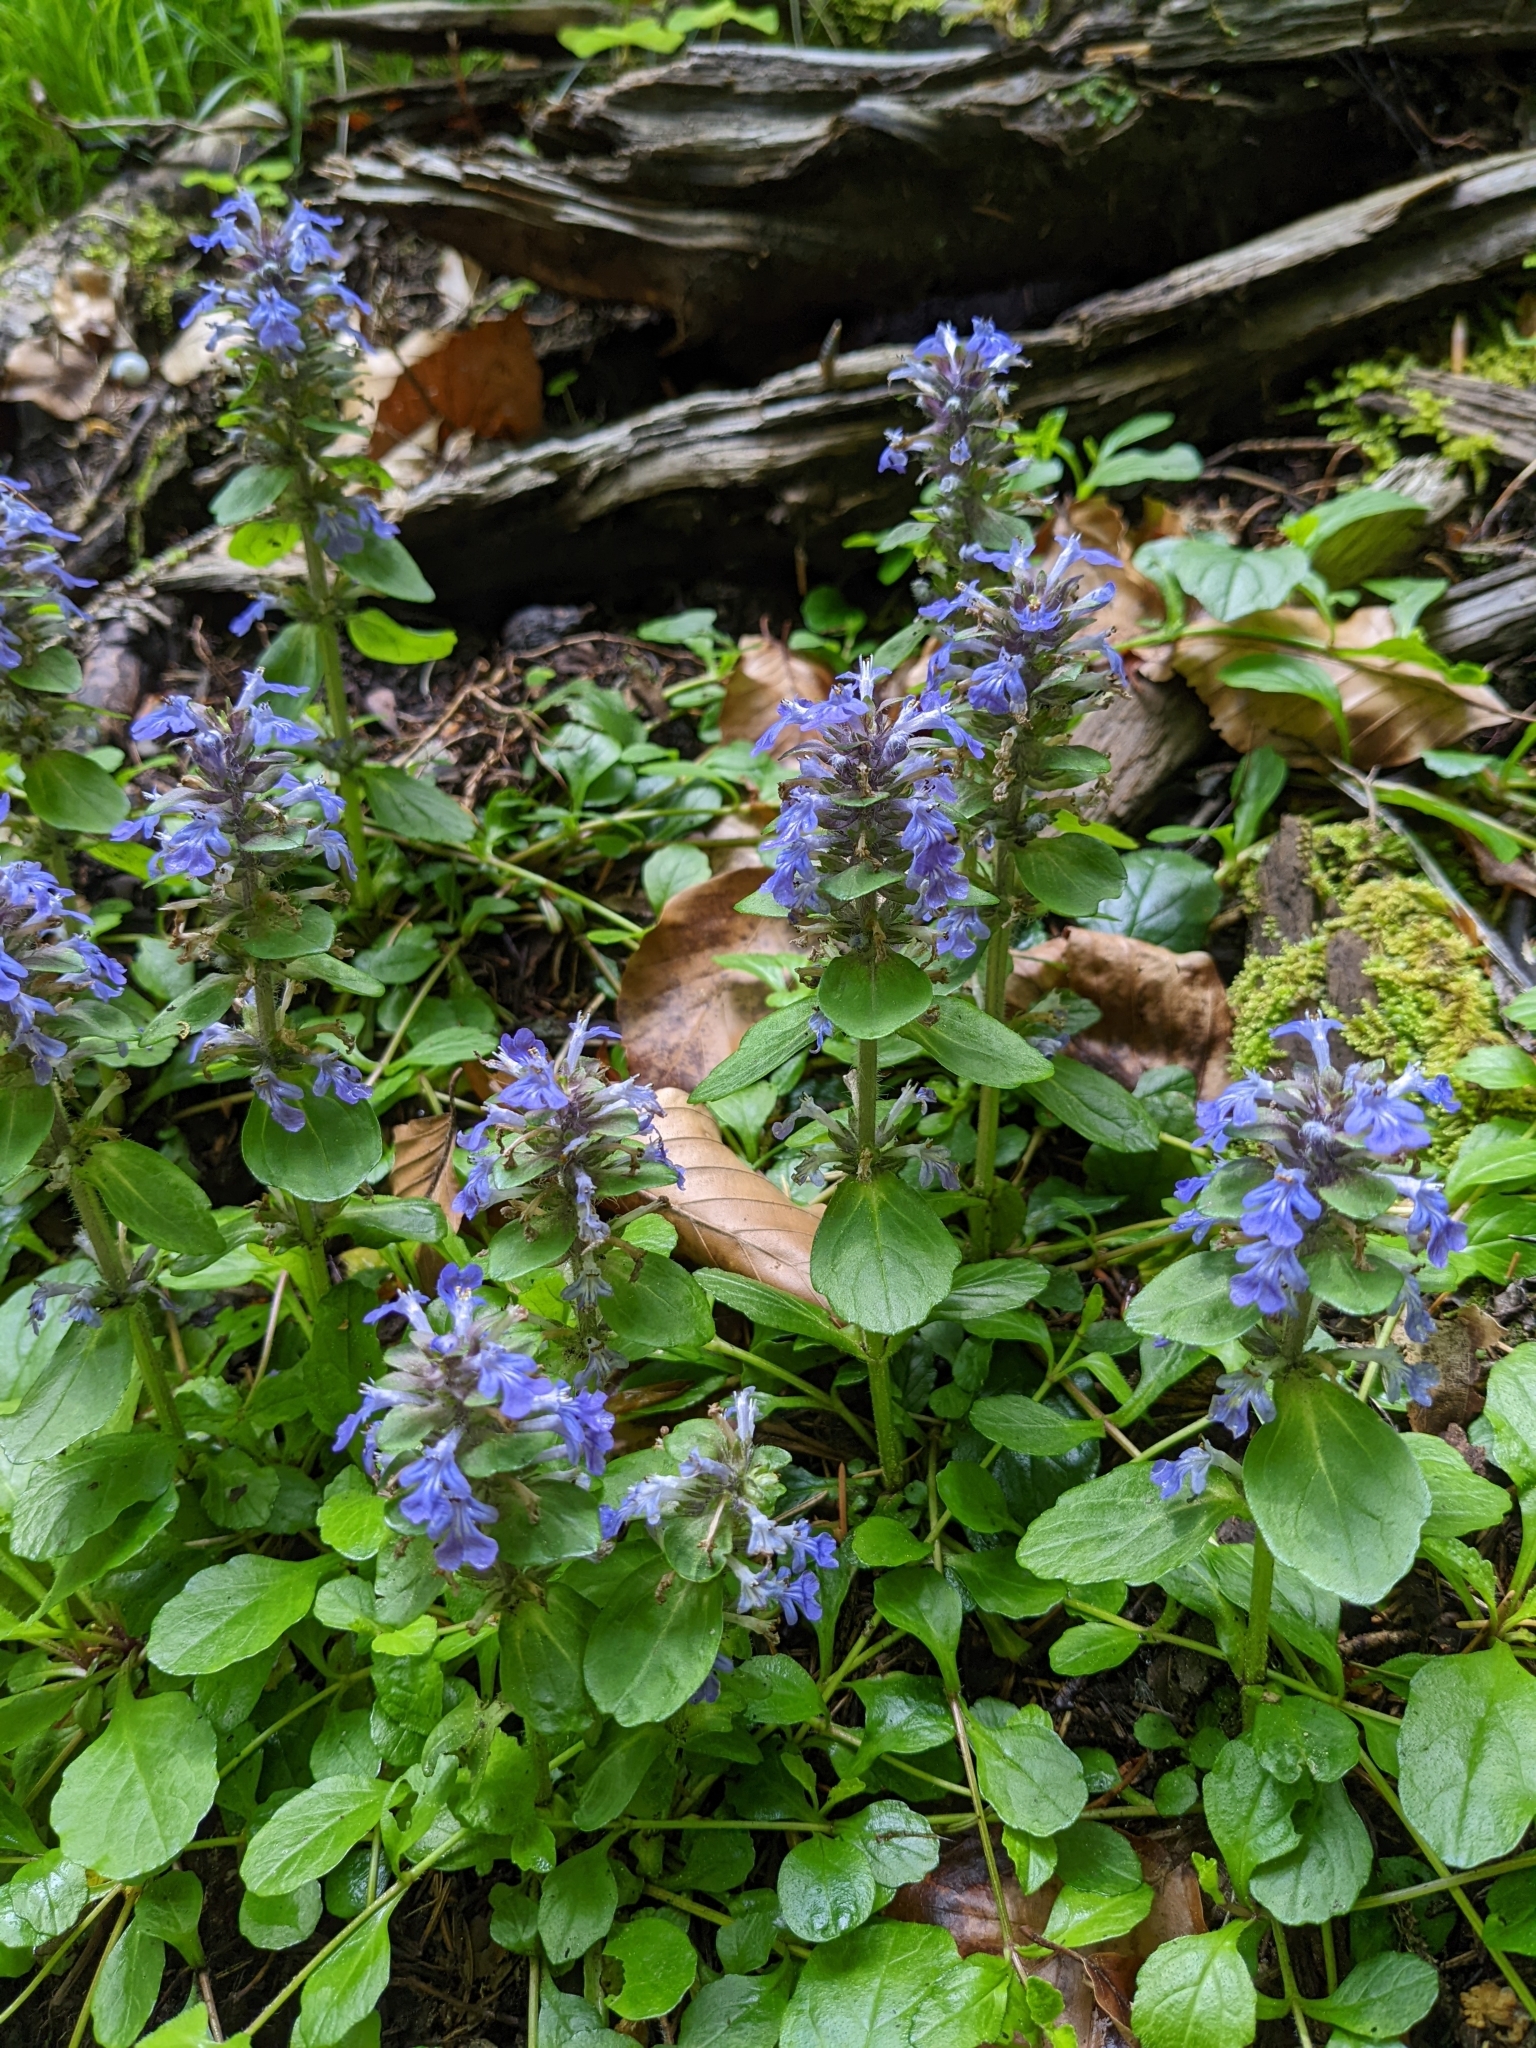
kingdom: Plantae
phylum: Tracheophyta
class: Magnoliopsida
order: Lamiales
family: Lamiaceae
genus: Ajuga
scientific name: Ajuga reptans
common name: Bugle
